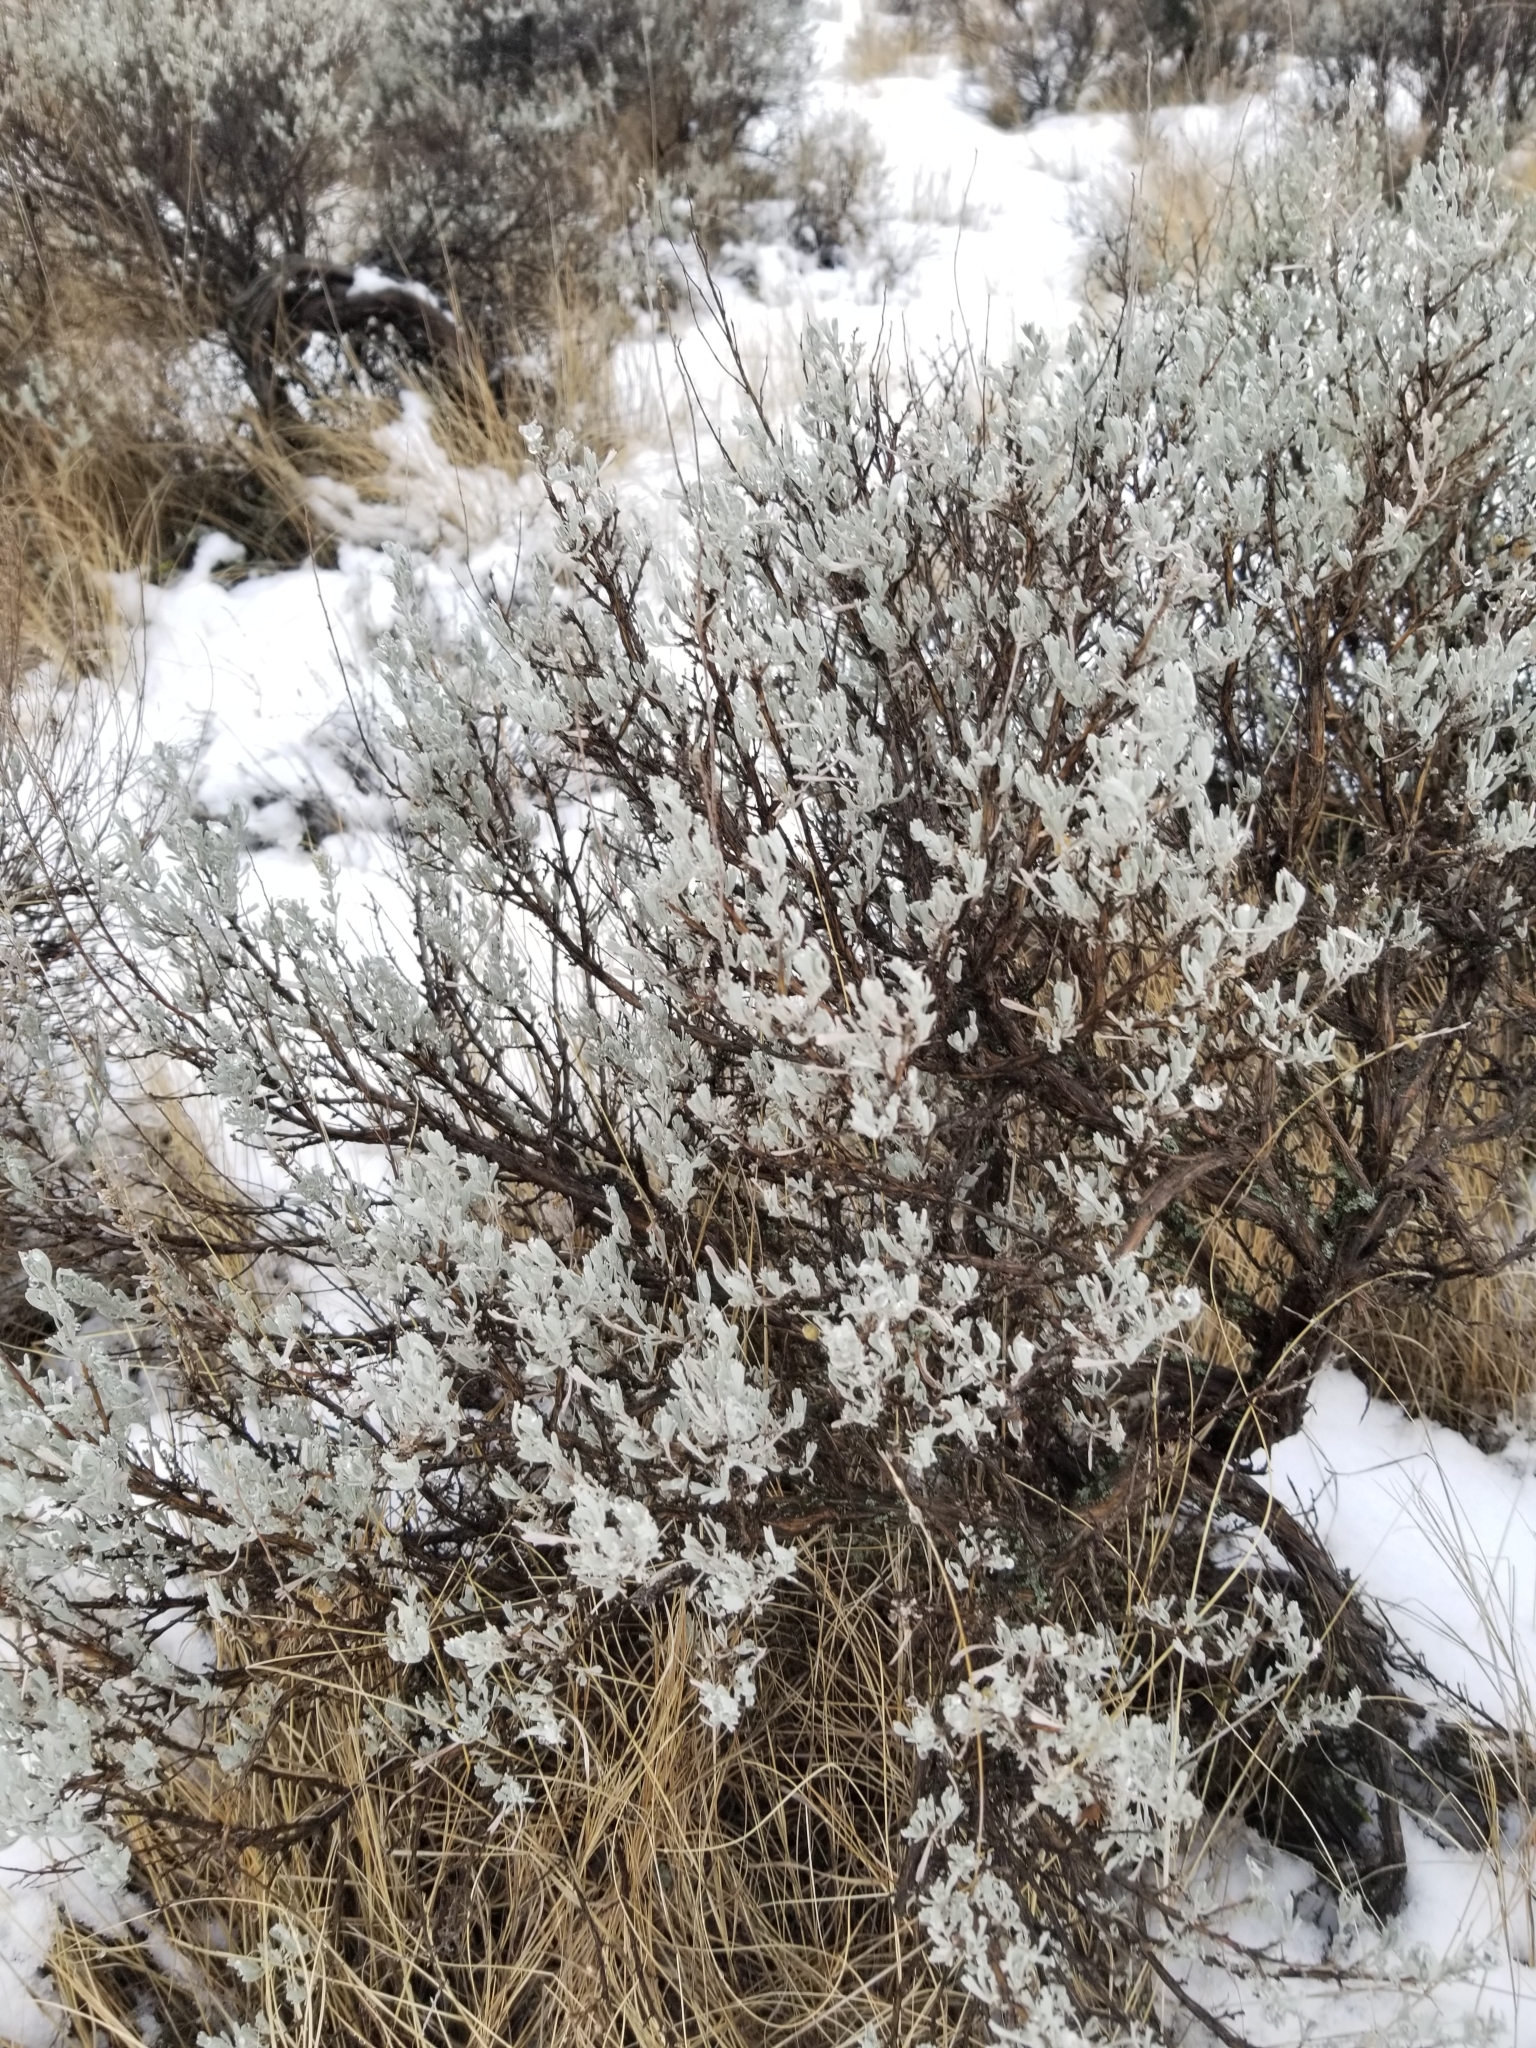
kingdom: Plantae
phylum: Tracheophyta
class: Magnoliopsida
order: Asterales
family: Asteraceae
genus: Artemisia
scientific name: Artemisia tridentata
